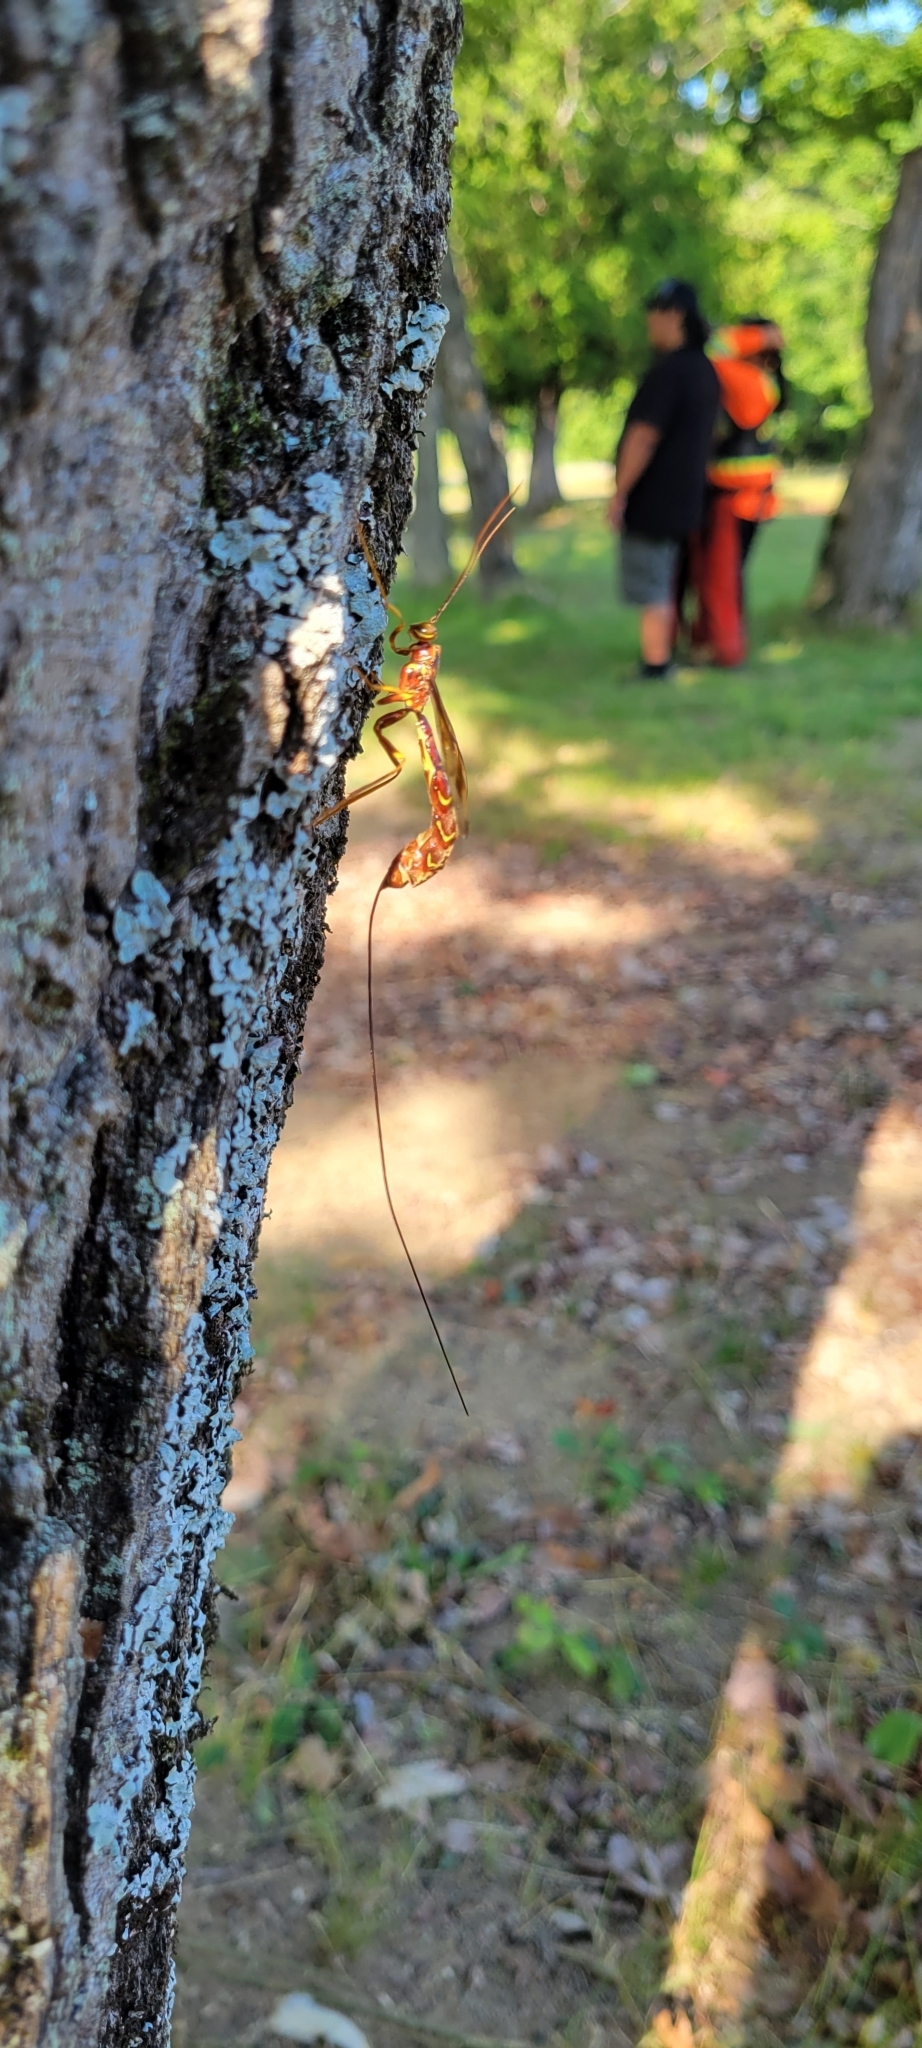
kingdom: Animalia
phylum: Arthropoda
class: Insecta
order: Hymenoptera
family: Ichneumonidae
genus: Megarhyssa
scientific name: Megarhyssa macrura
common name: Long-tailed giant ichneumonid wasp
